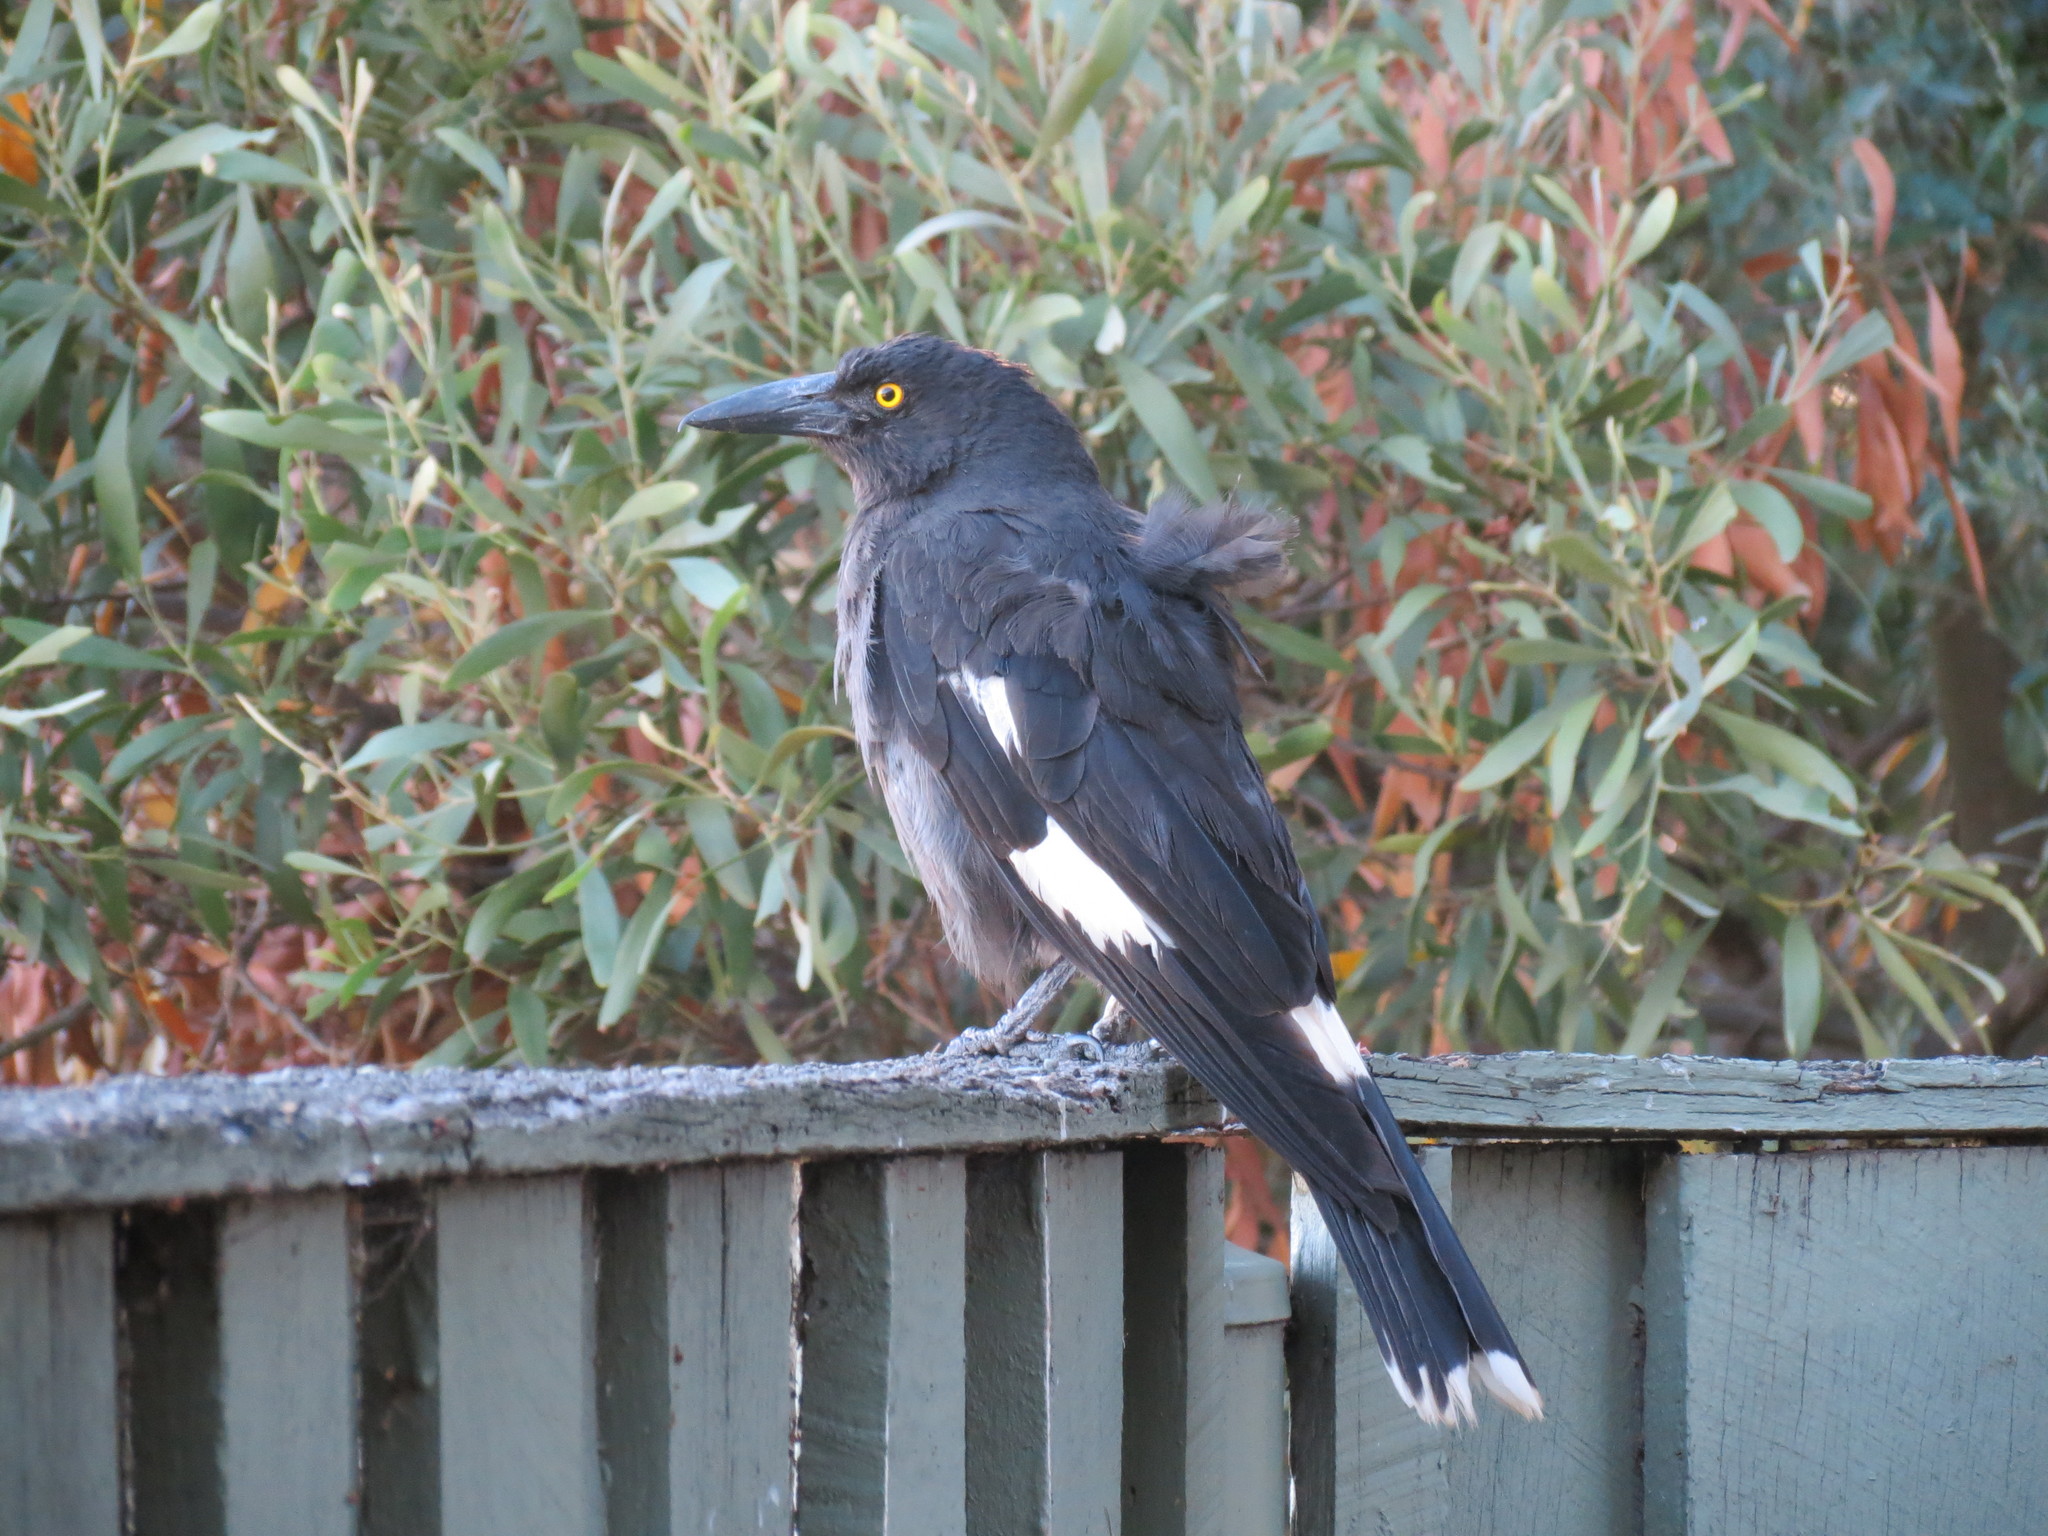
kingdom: Animalia
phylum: Chordata
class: Aves
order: Passeriformes
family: Cracticidae
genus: Strepera
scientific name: Strepera graculina
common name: Pied currawong
